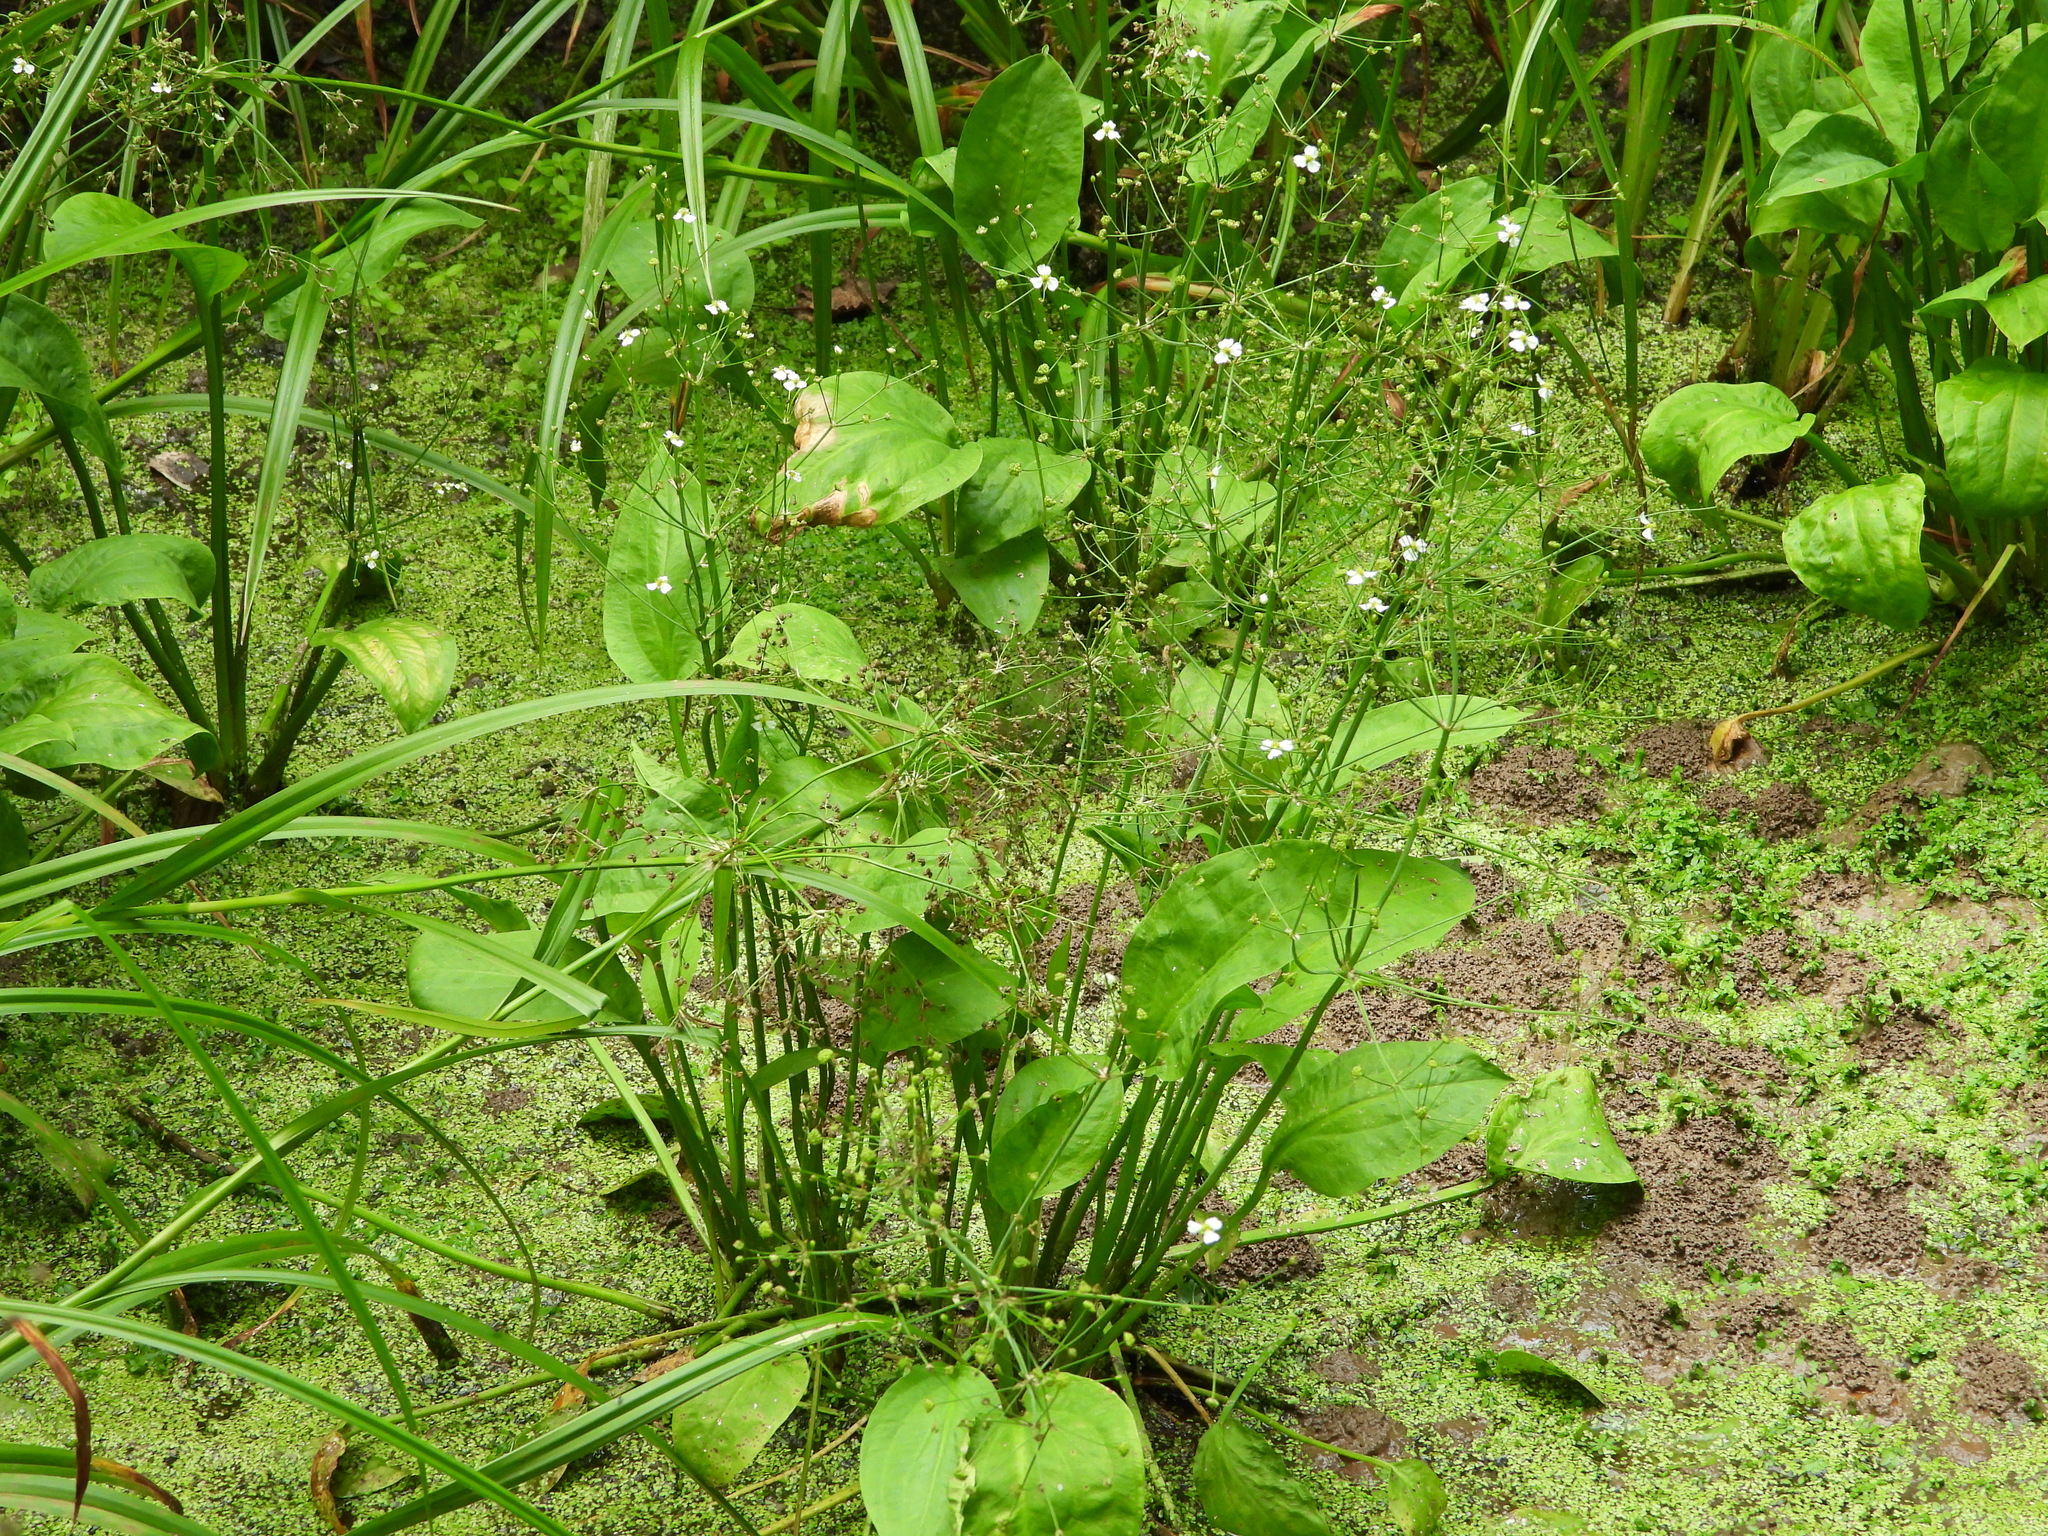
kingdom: Plantae
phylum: Tracheophyta
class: Liliopsida
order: Alismatales
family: Alismataceae
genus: Alisma
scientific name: Alisma plantago-aquatica
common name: Water-plantain
